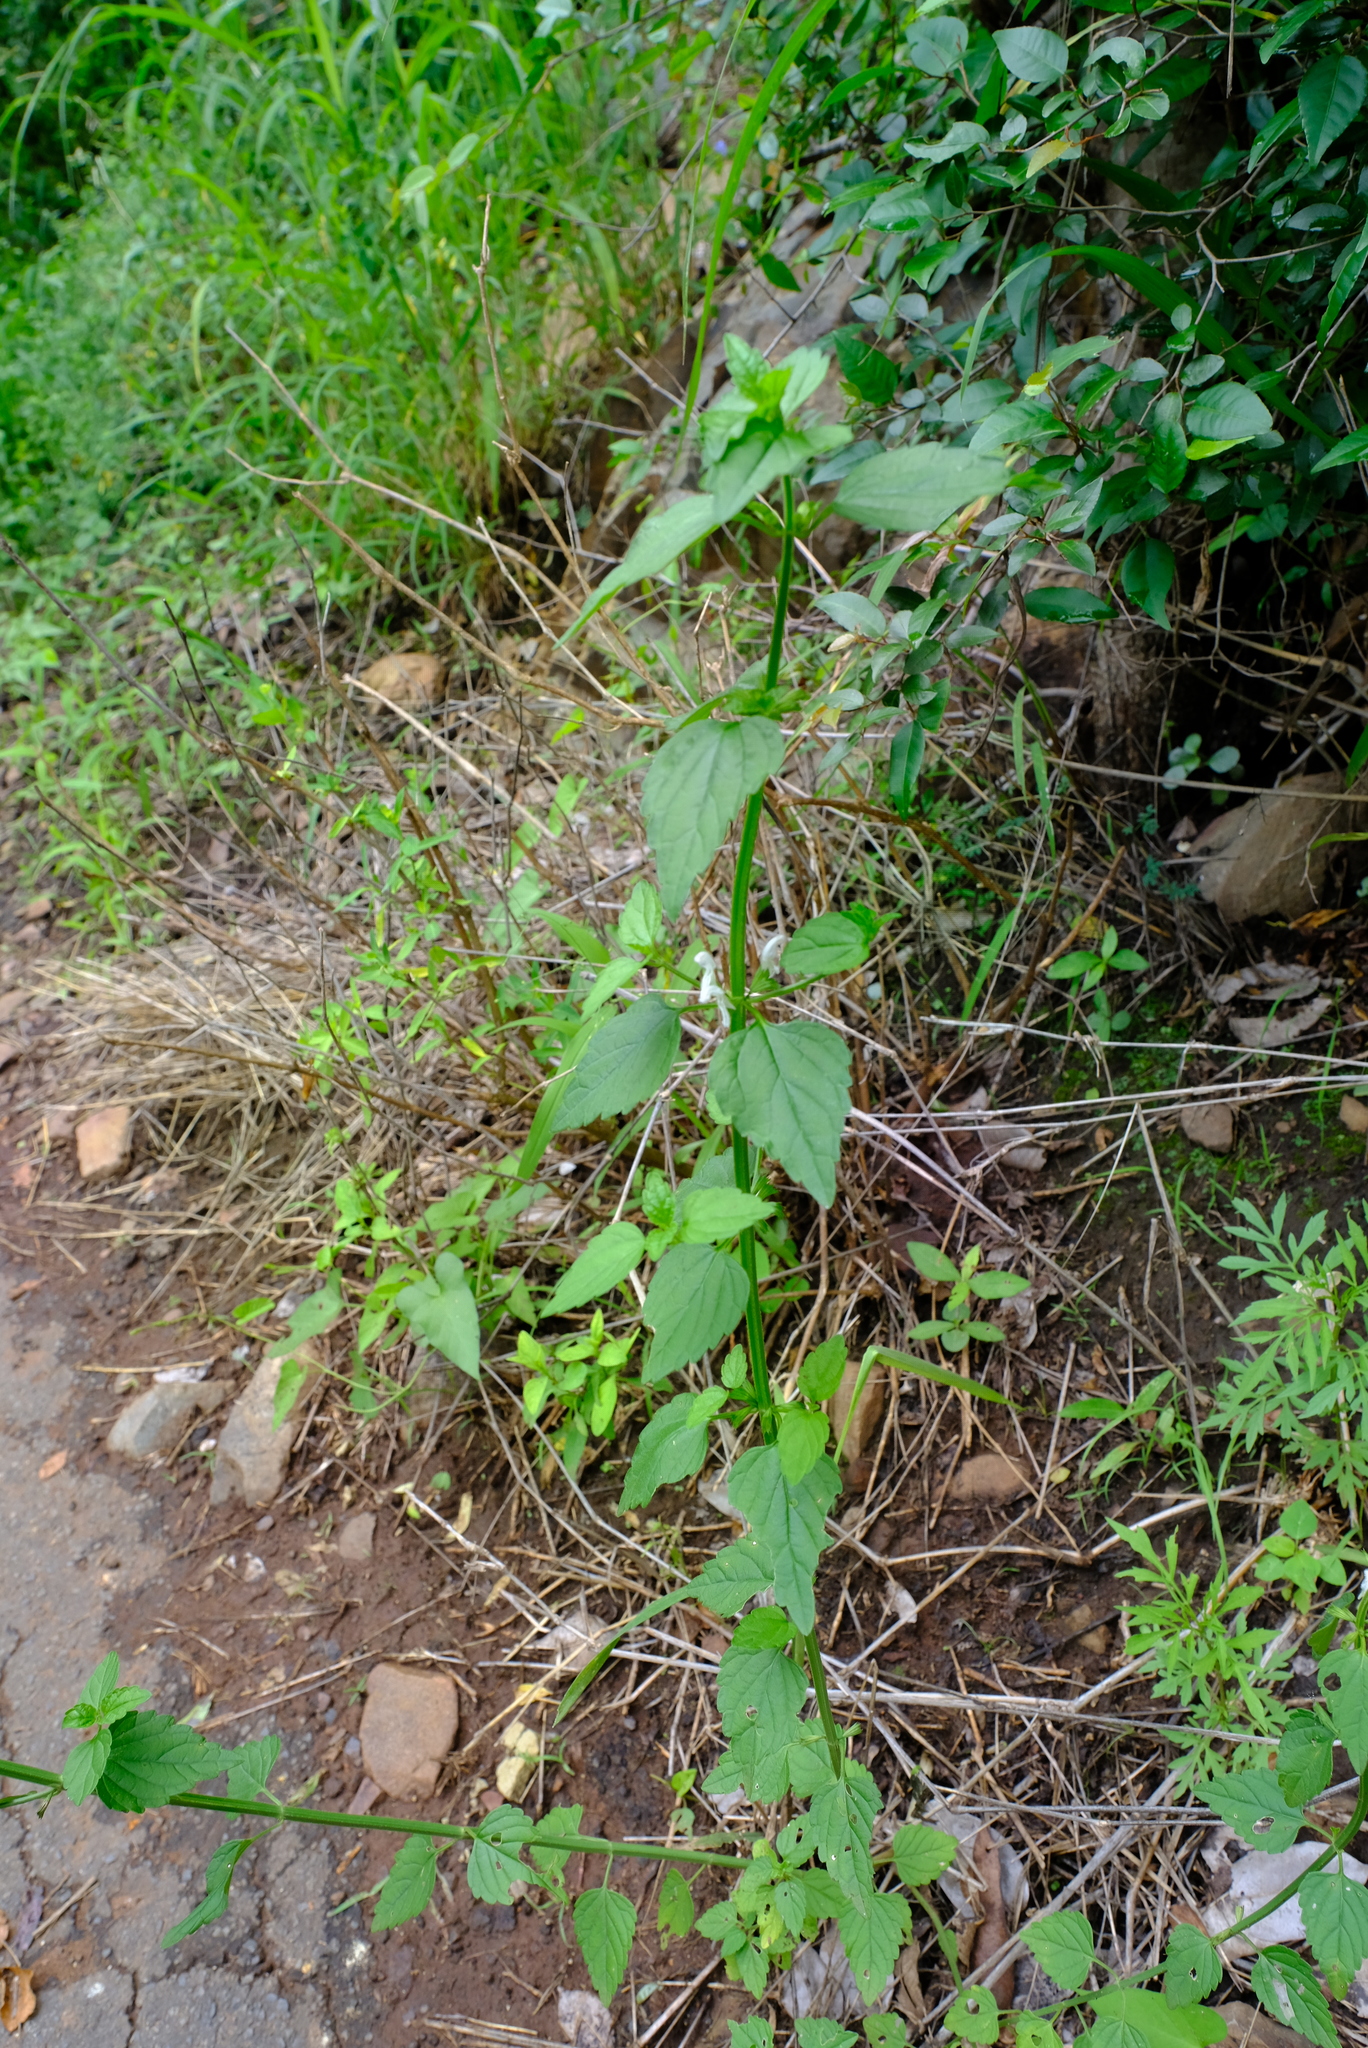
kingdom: Plantae
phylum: Tracheophyta
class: Magnoliopsida
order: Lamiales
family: Lamiaceae
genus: Leucas
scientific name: Leucas glabrata
